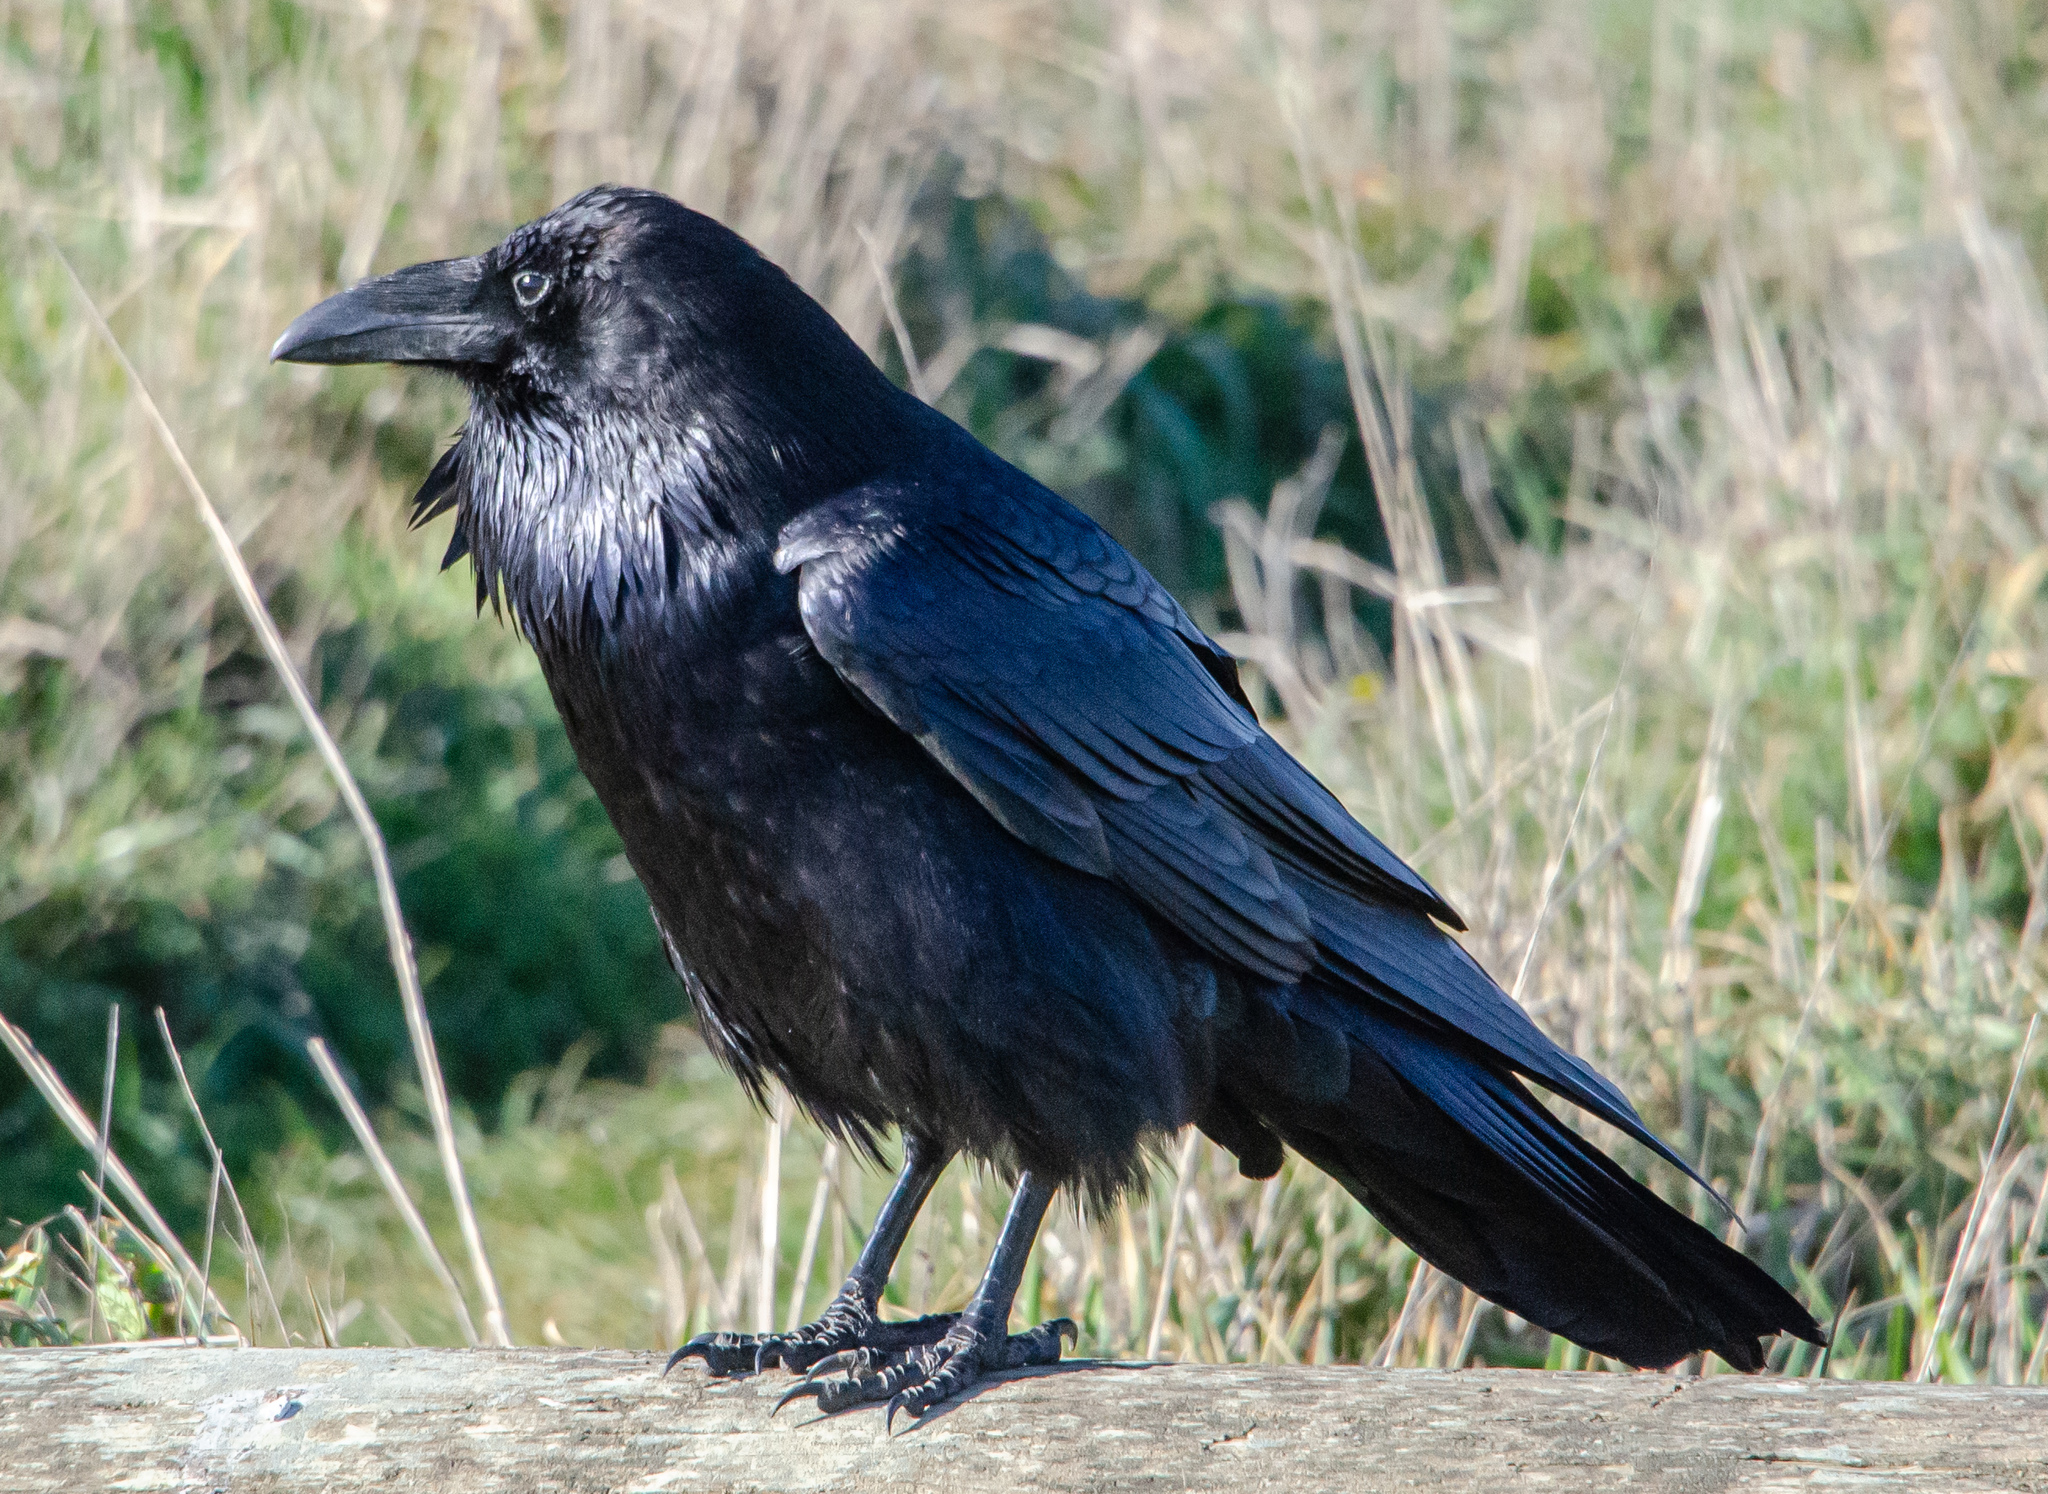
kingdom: Animalia
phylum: Chordata
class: Aves
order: Passeriformes
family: Corvidae
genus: Corvus
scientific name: Corvus corax
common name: Common raven
